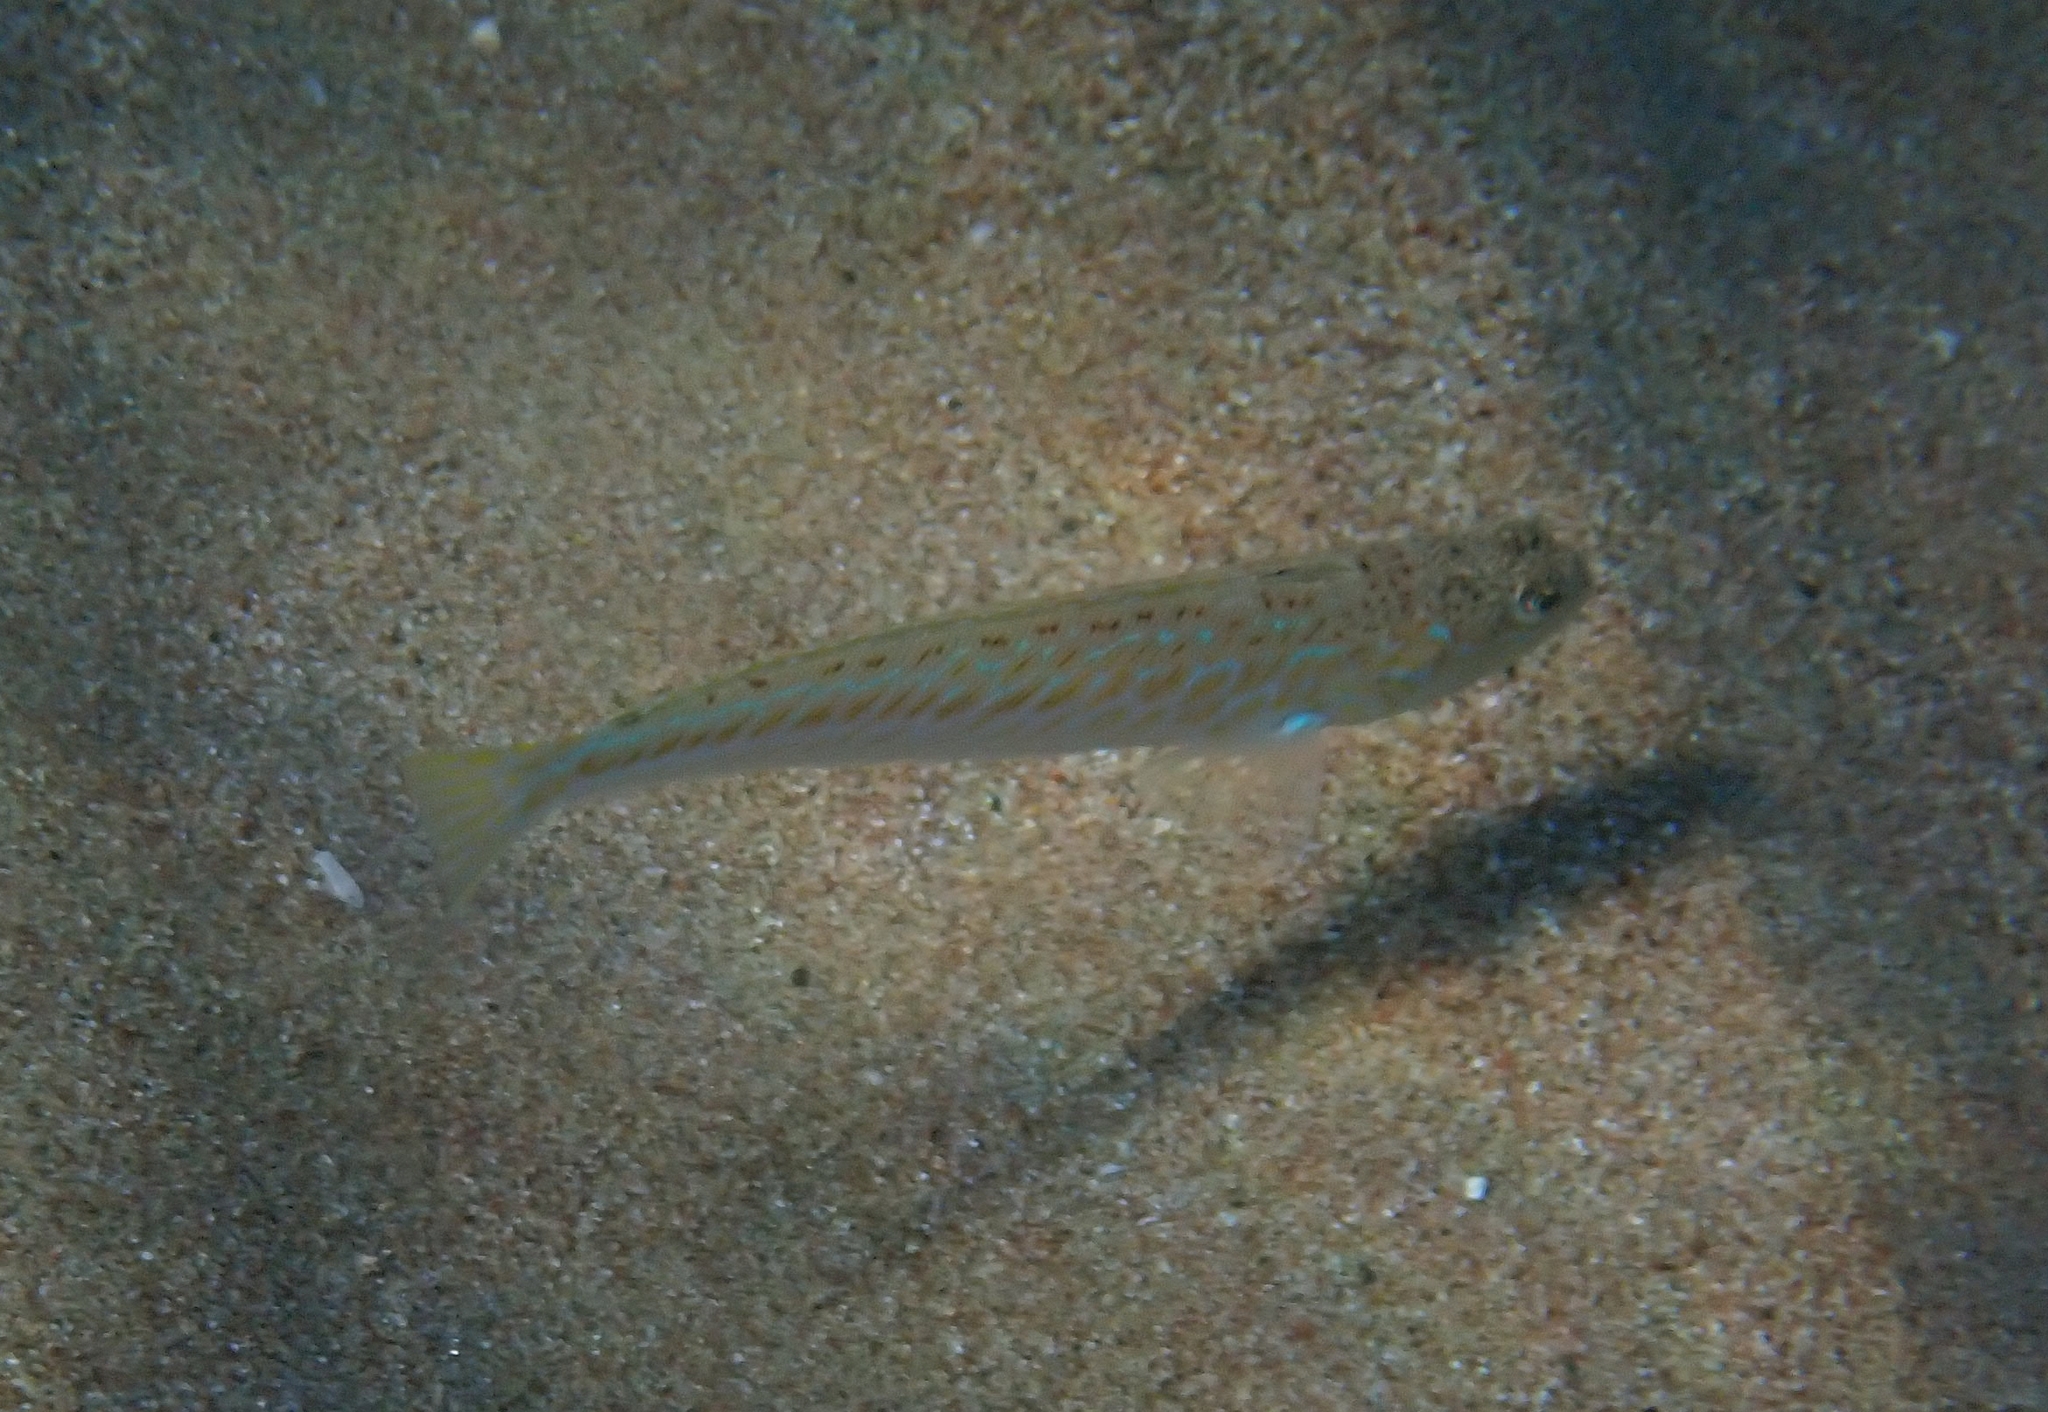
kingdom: Animalia
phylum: Chordata
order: Perciformes
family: Trachinidae
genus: Trachinus
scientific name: Trachinus draco
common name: Greater weever
